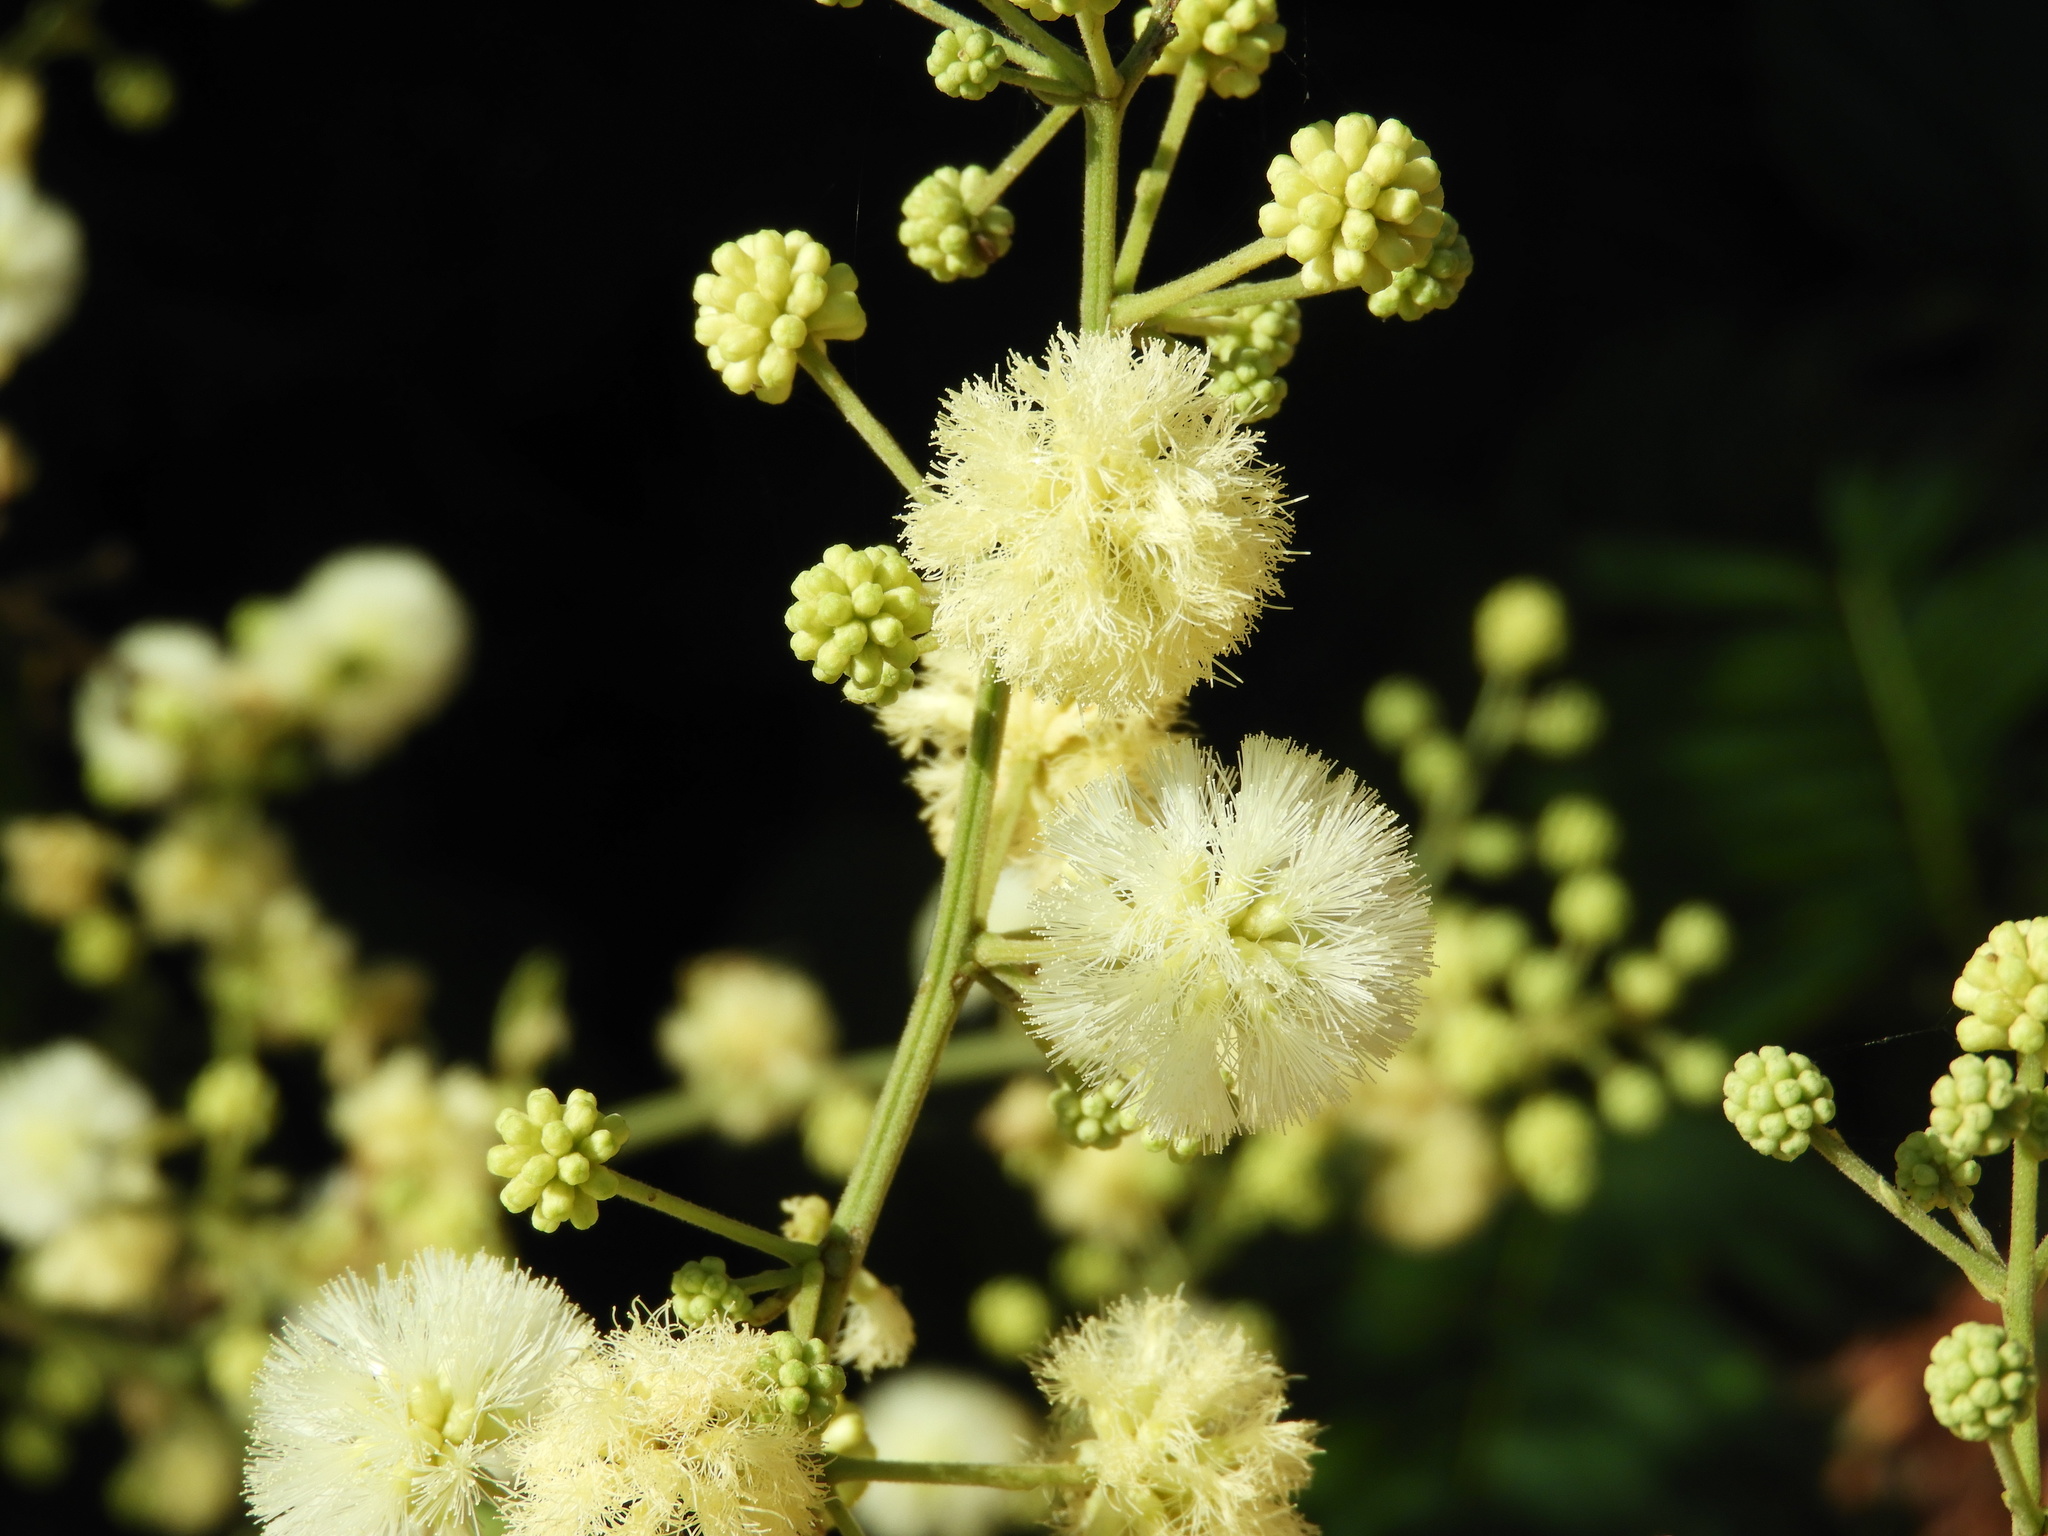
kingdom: Plantae
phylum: Tracheophyta
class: Magnoliopsida
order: Fabales
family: Fabaceae
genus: Leucaena
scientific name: Leucaena leucocephala
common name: White leadtree
